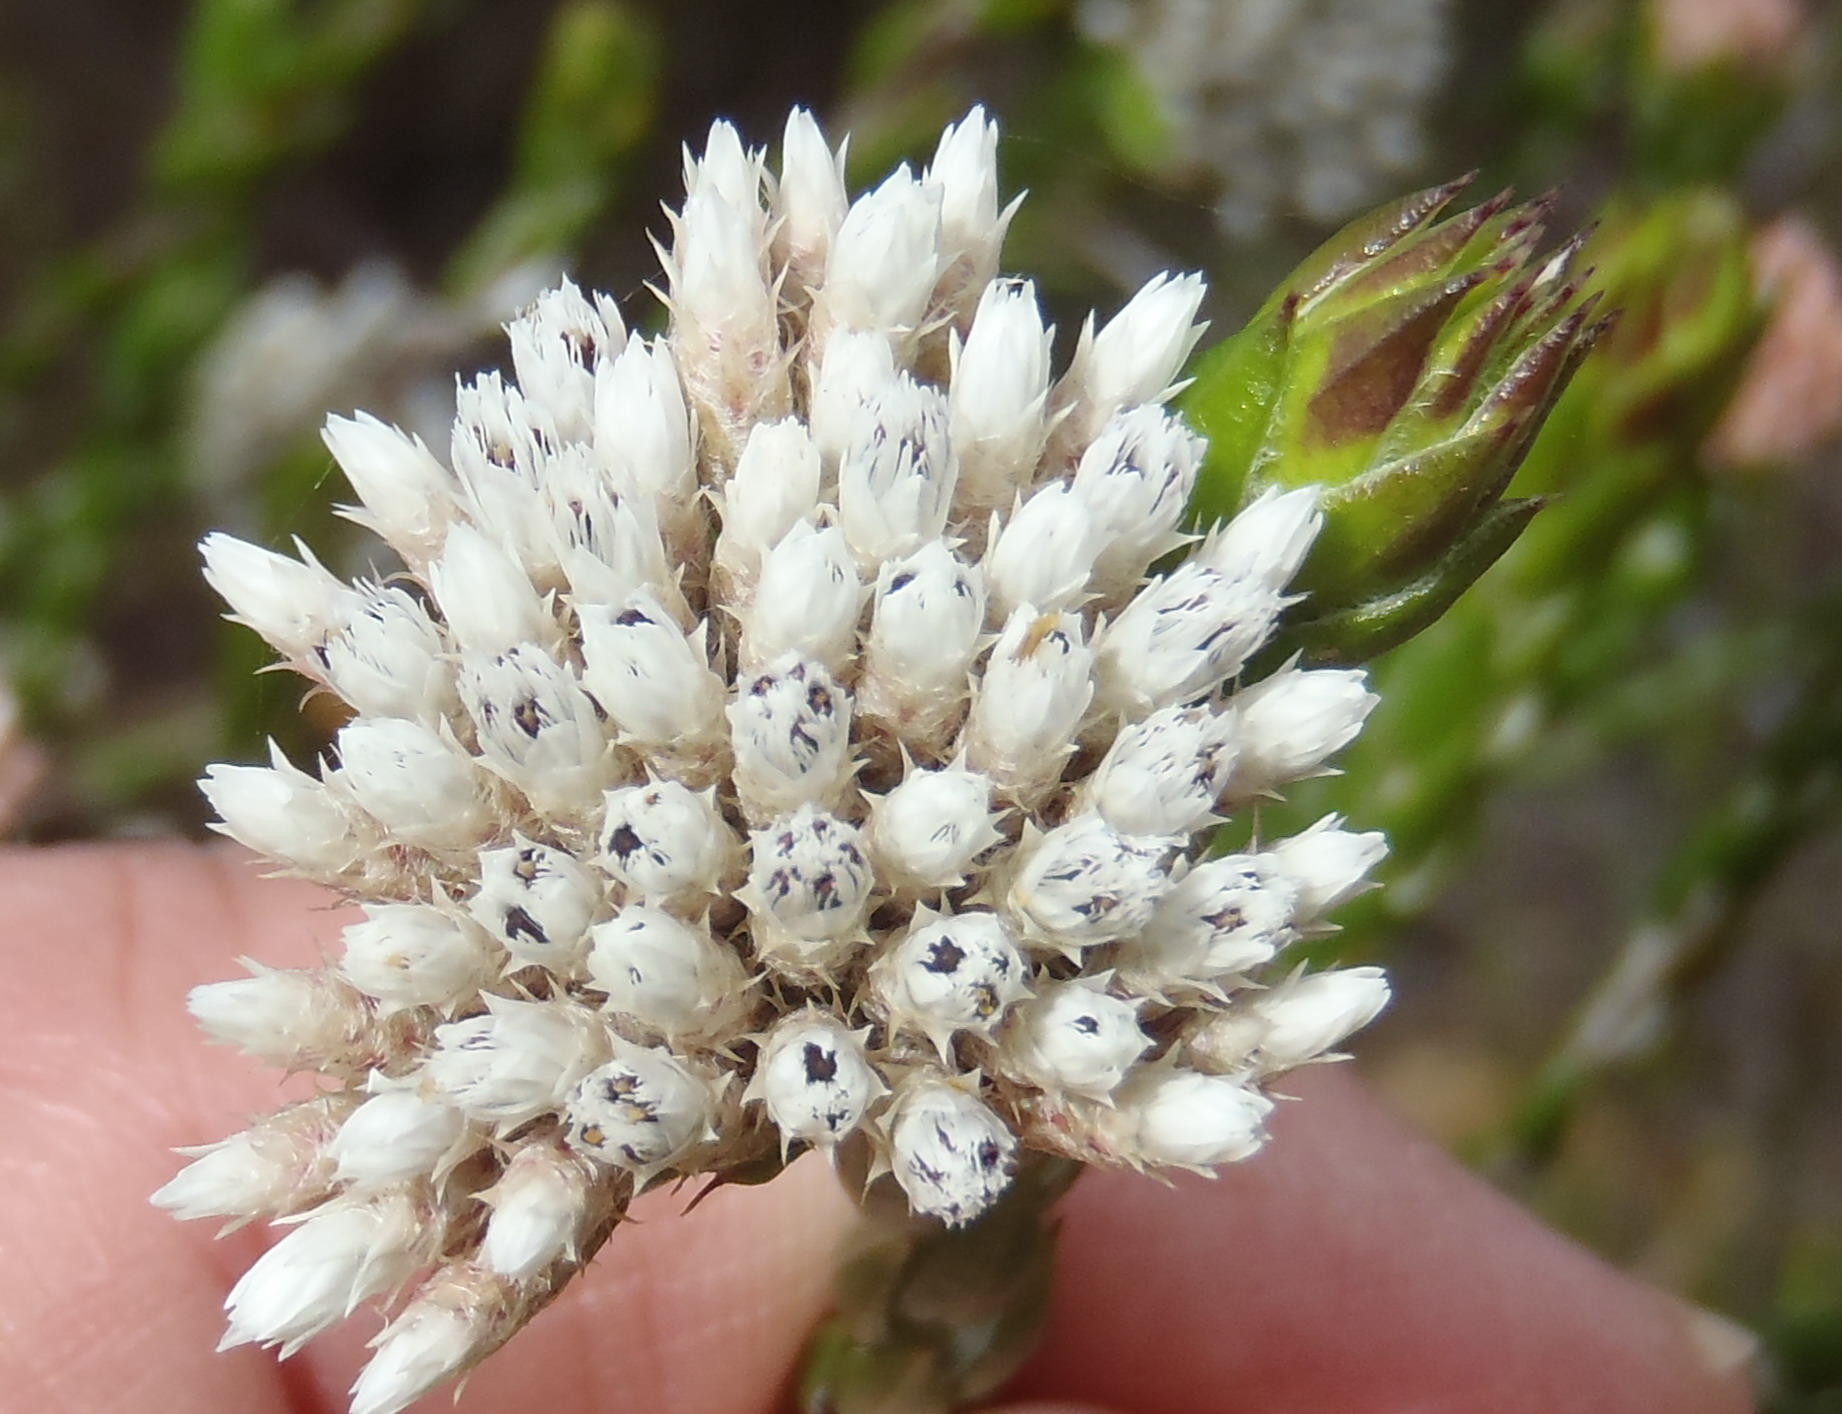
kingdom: Plantae
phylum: Tracheophyta
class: Magnoliopsida
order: Asterales
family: Asteraceae
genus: Metalasia
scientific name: Metalasia pulcherrima
